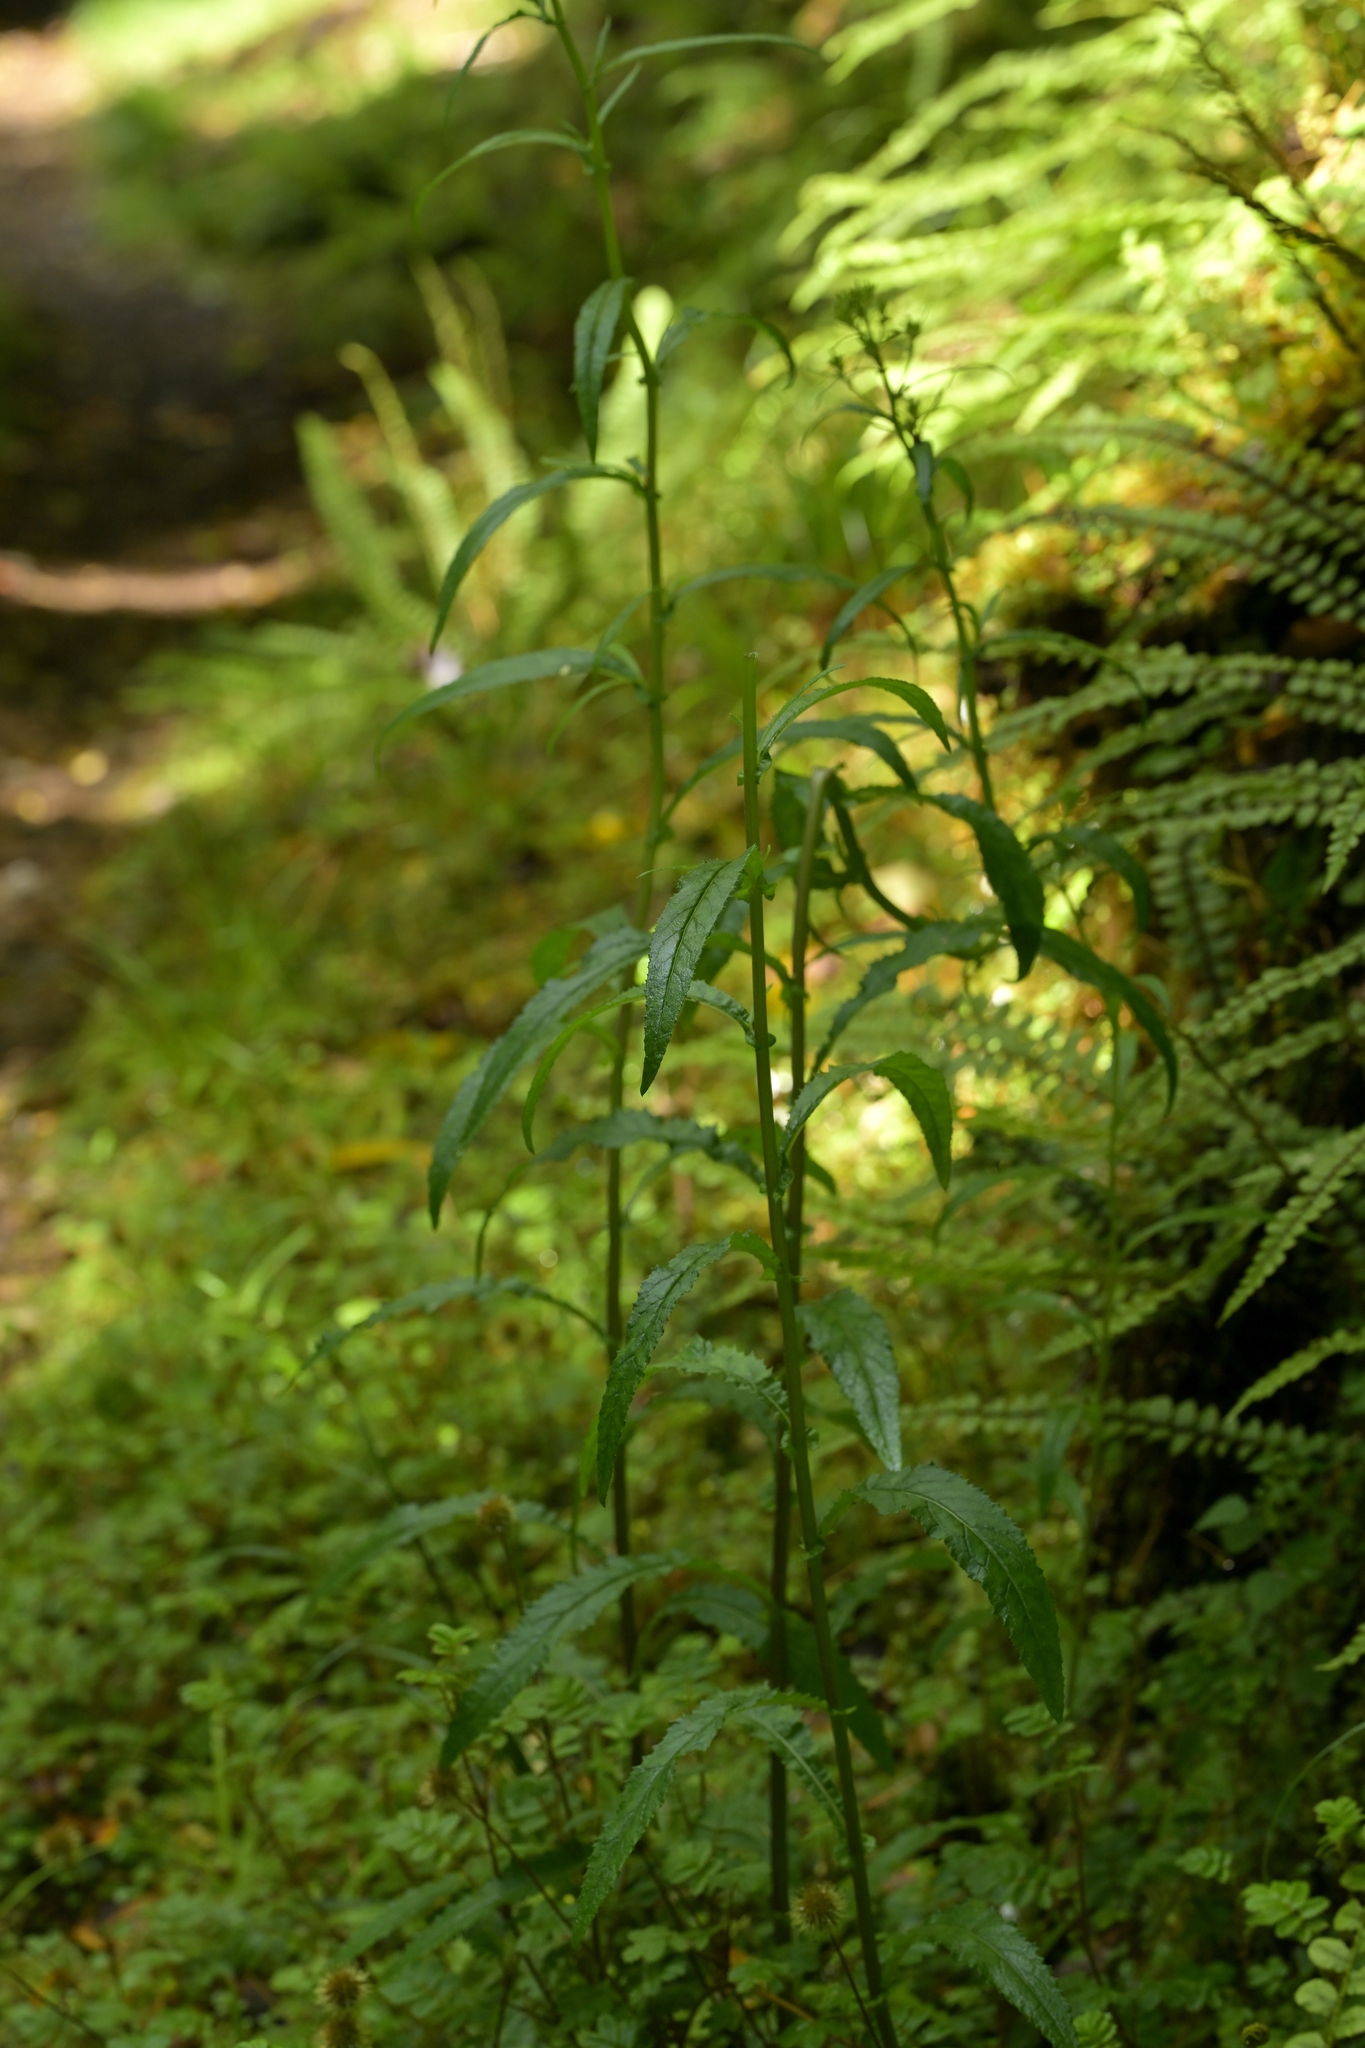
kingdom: Plantae
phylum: Tracheophyta
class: Magnoliopsida
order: Asterales
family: Asteraceae
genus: Senecio
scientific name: Senecio minimus
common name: Toothed fireweed
